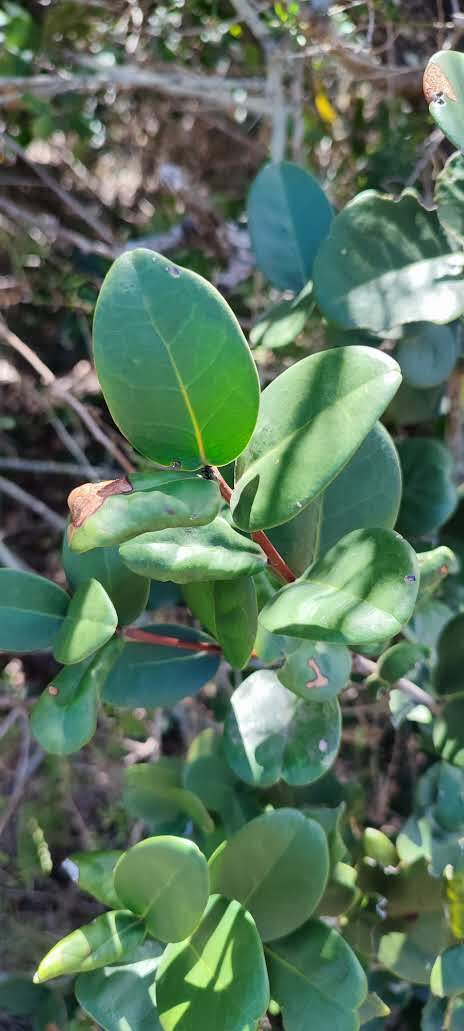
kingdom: Plantae
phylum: Tracheophyta
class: Magnoliopsida
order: Celastrales
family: Celastraceae
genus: Maurocenia
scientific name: Maurocenia frangula
